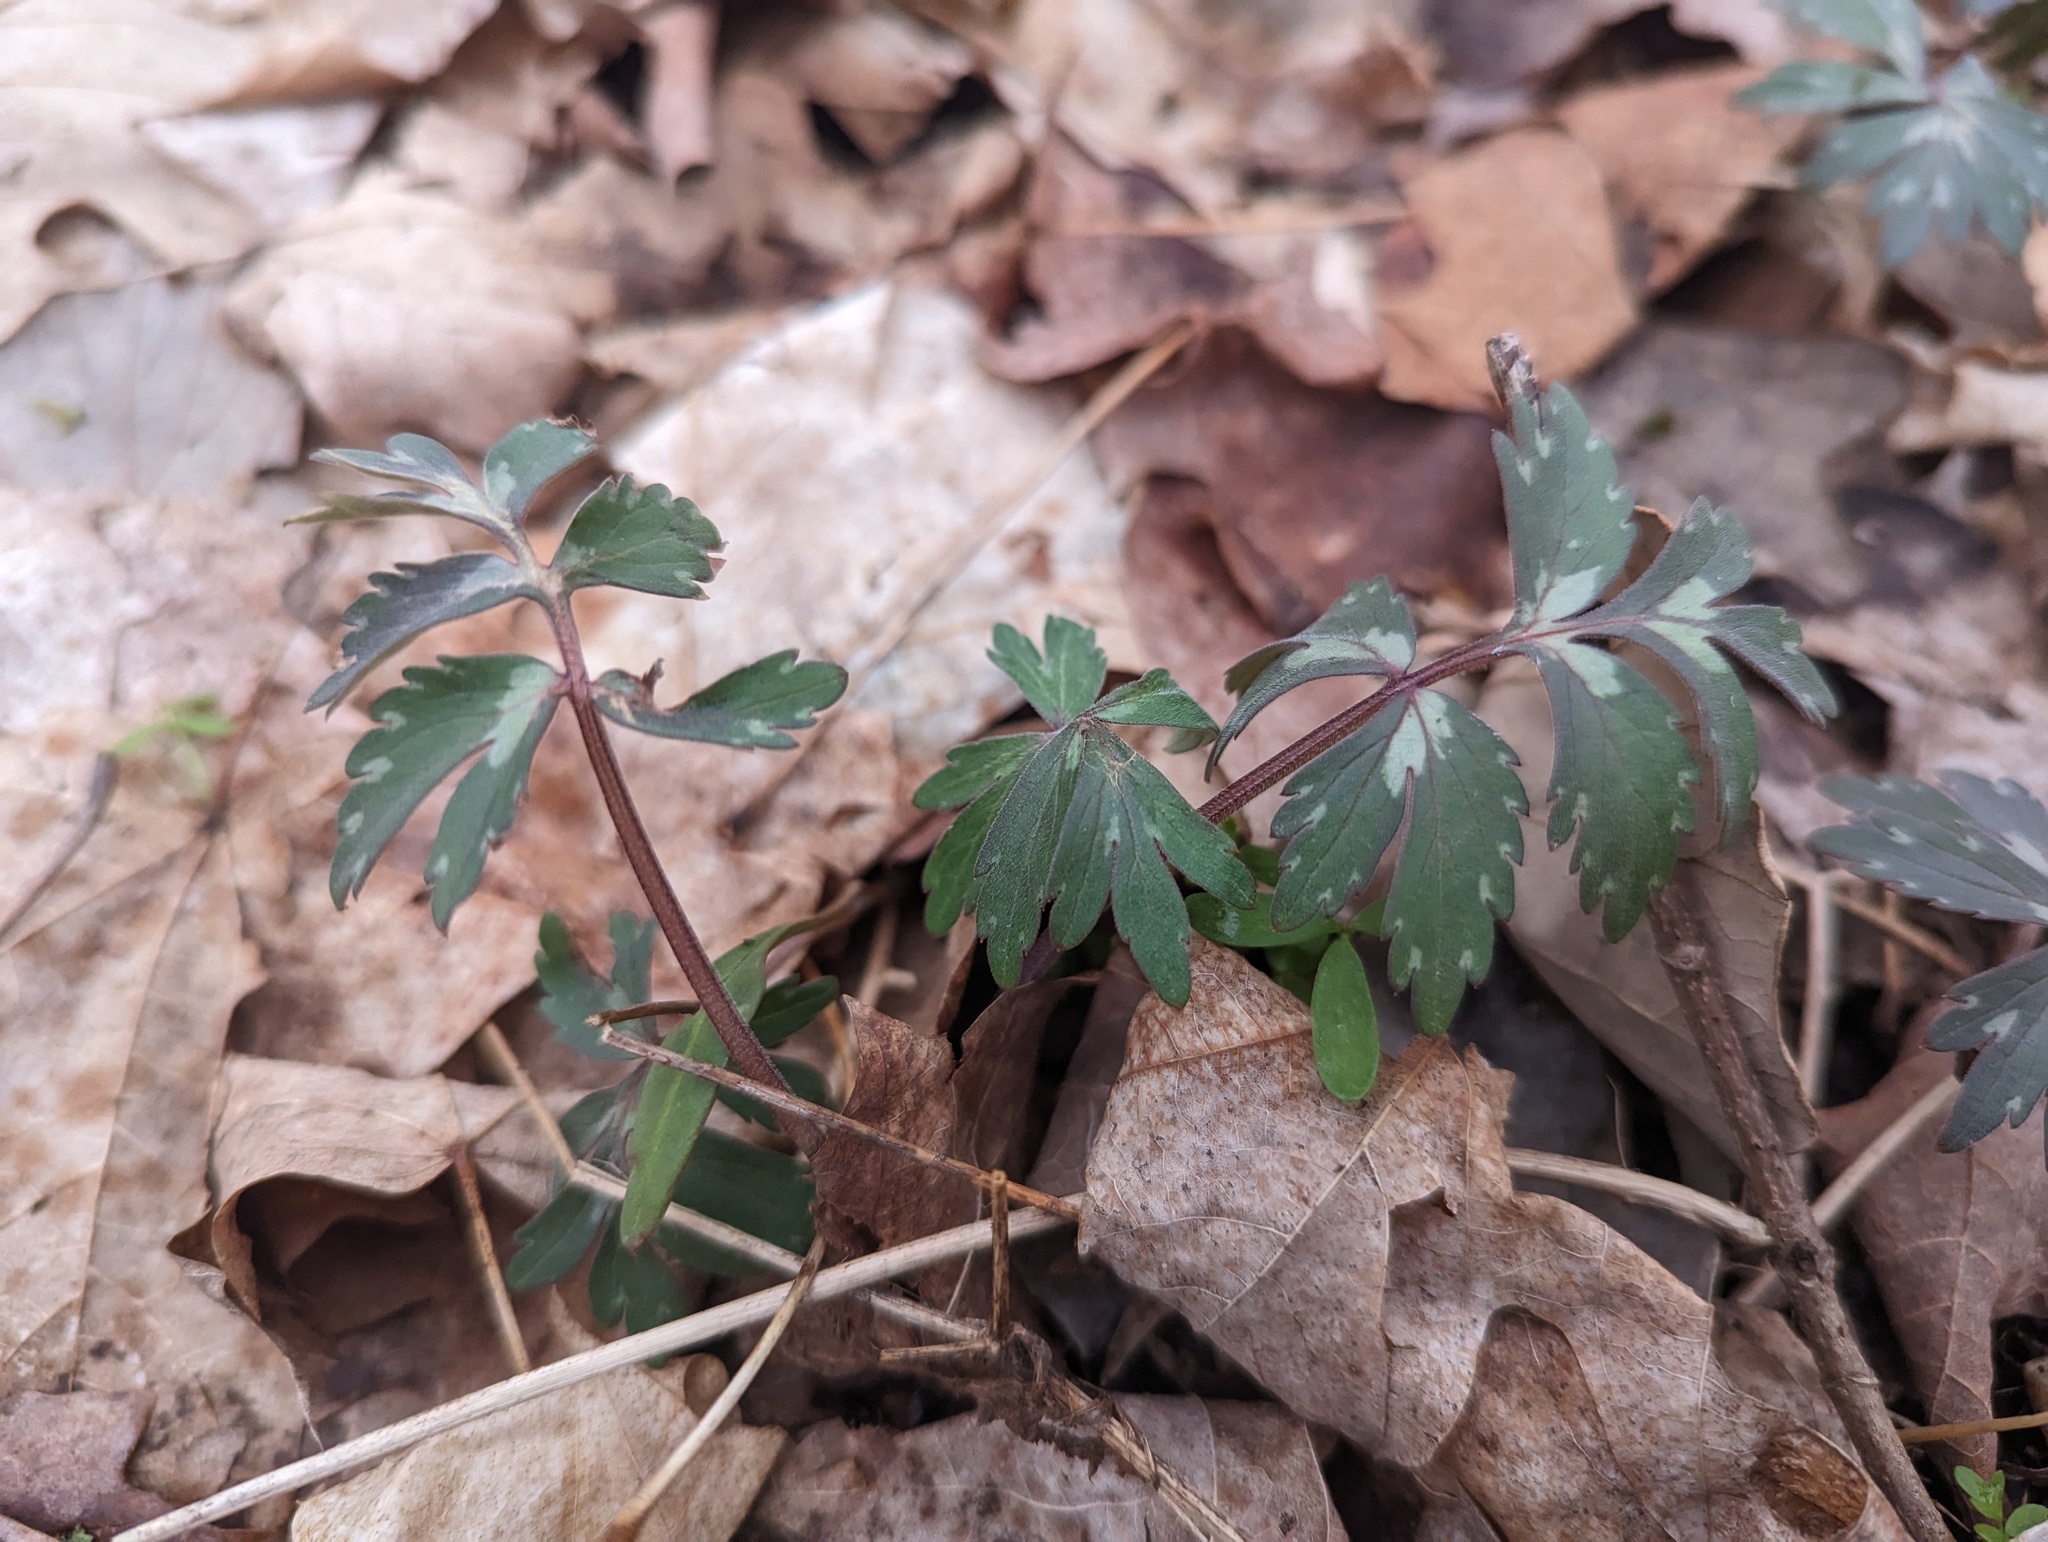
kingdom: Plantae
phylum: Tracheophyta
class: Magnoliopsida
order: Boraginales
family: Hydrophyllaceae
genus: Hydrophyllum
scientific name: Hydrophyllum virginianum
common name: Virginia waterleaf
